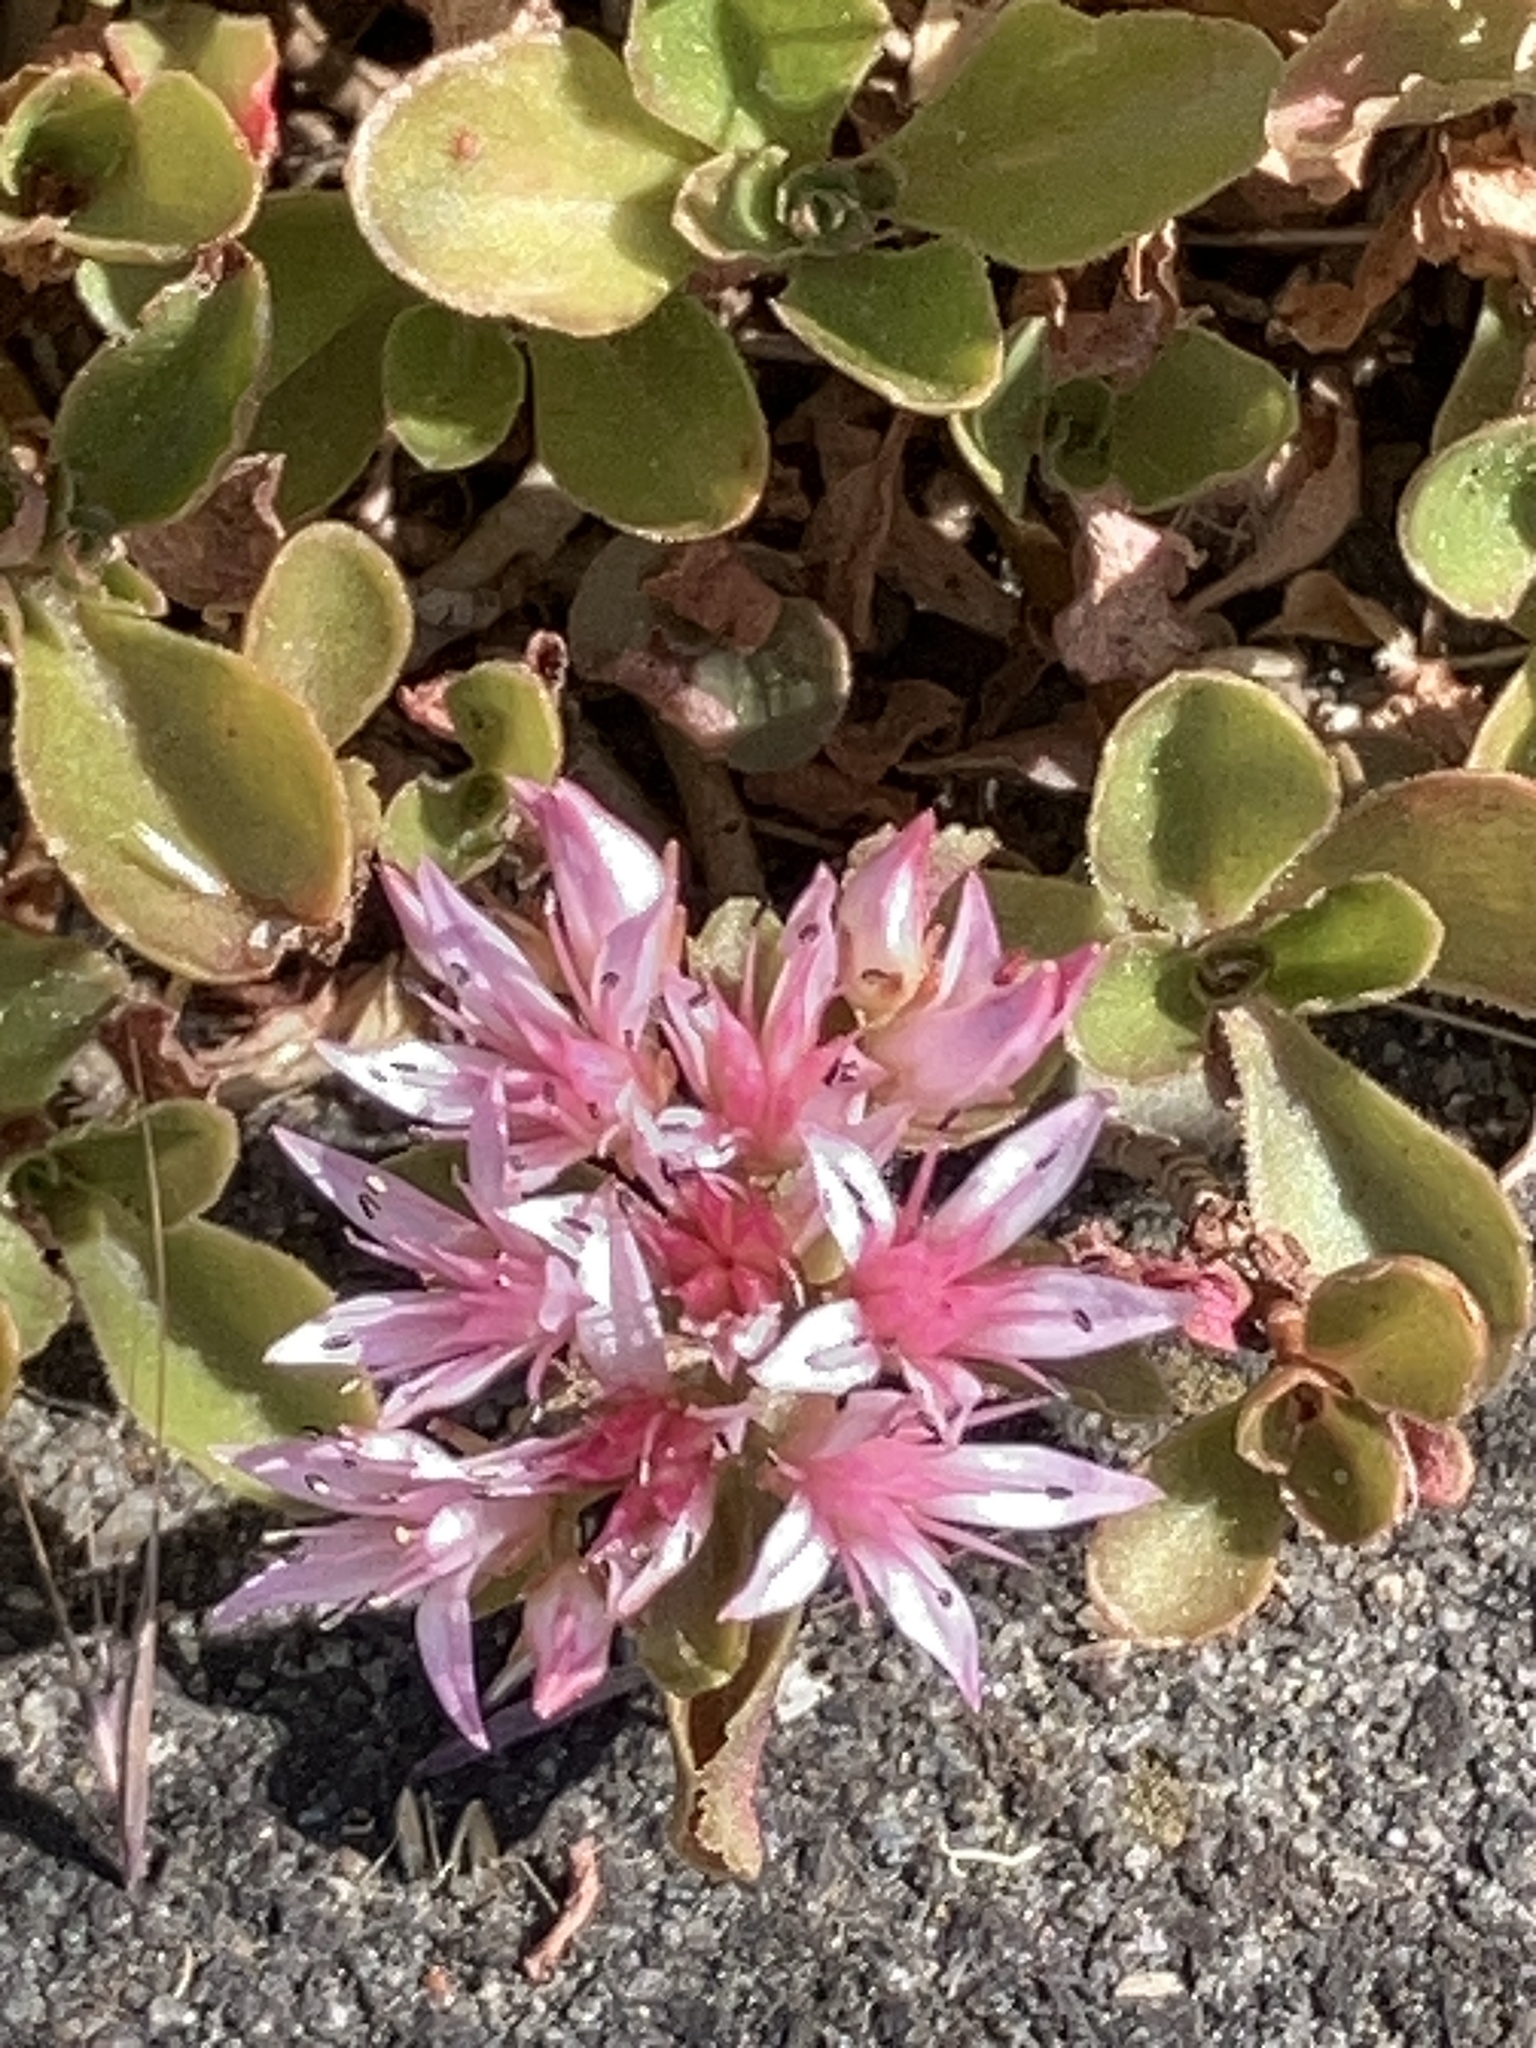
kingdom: Plantae
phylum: Tracheophyta
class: Magnoliopsida
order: Saxifragales
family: Crassulaceae
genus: Phedimus
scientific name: Phedimus spurius
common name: Caucasian stonecrop
